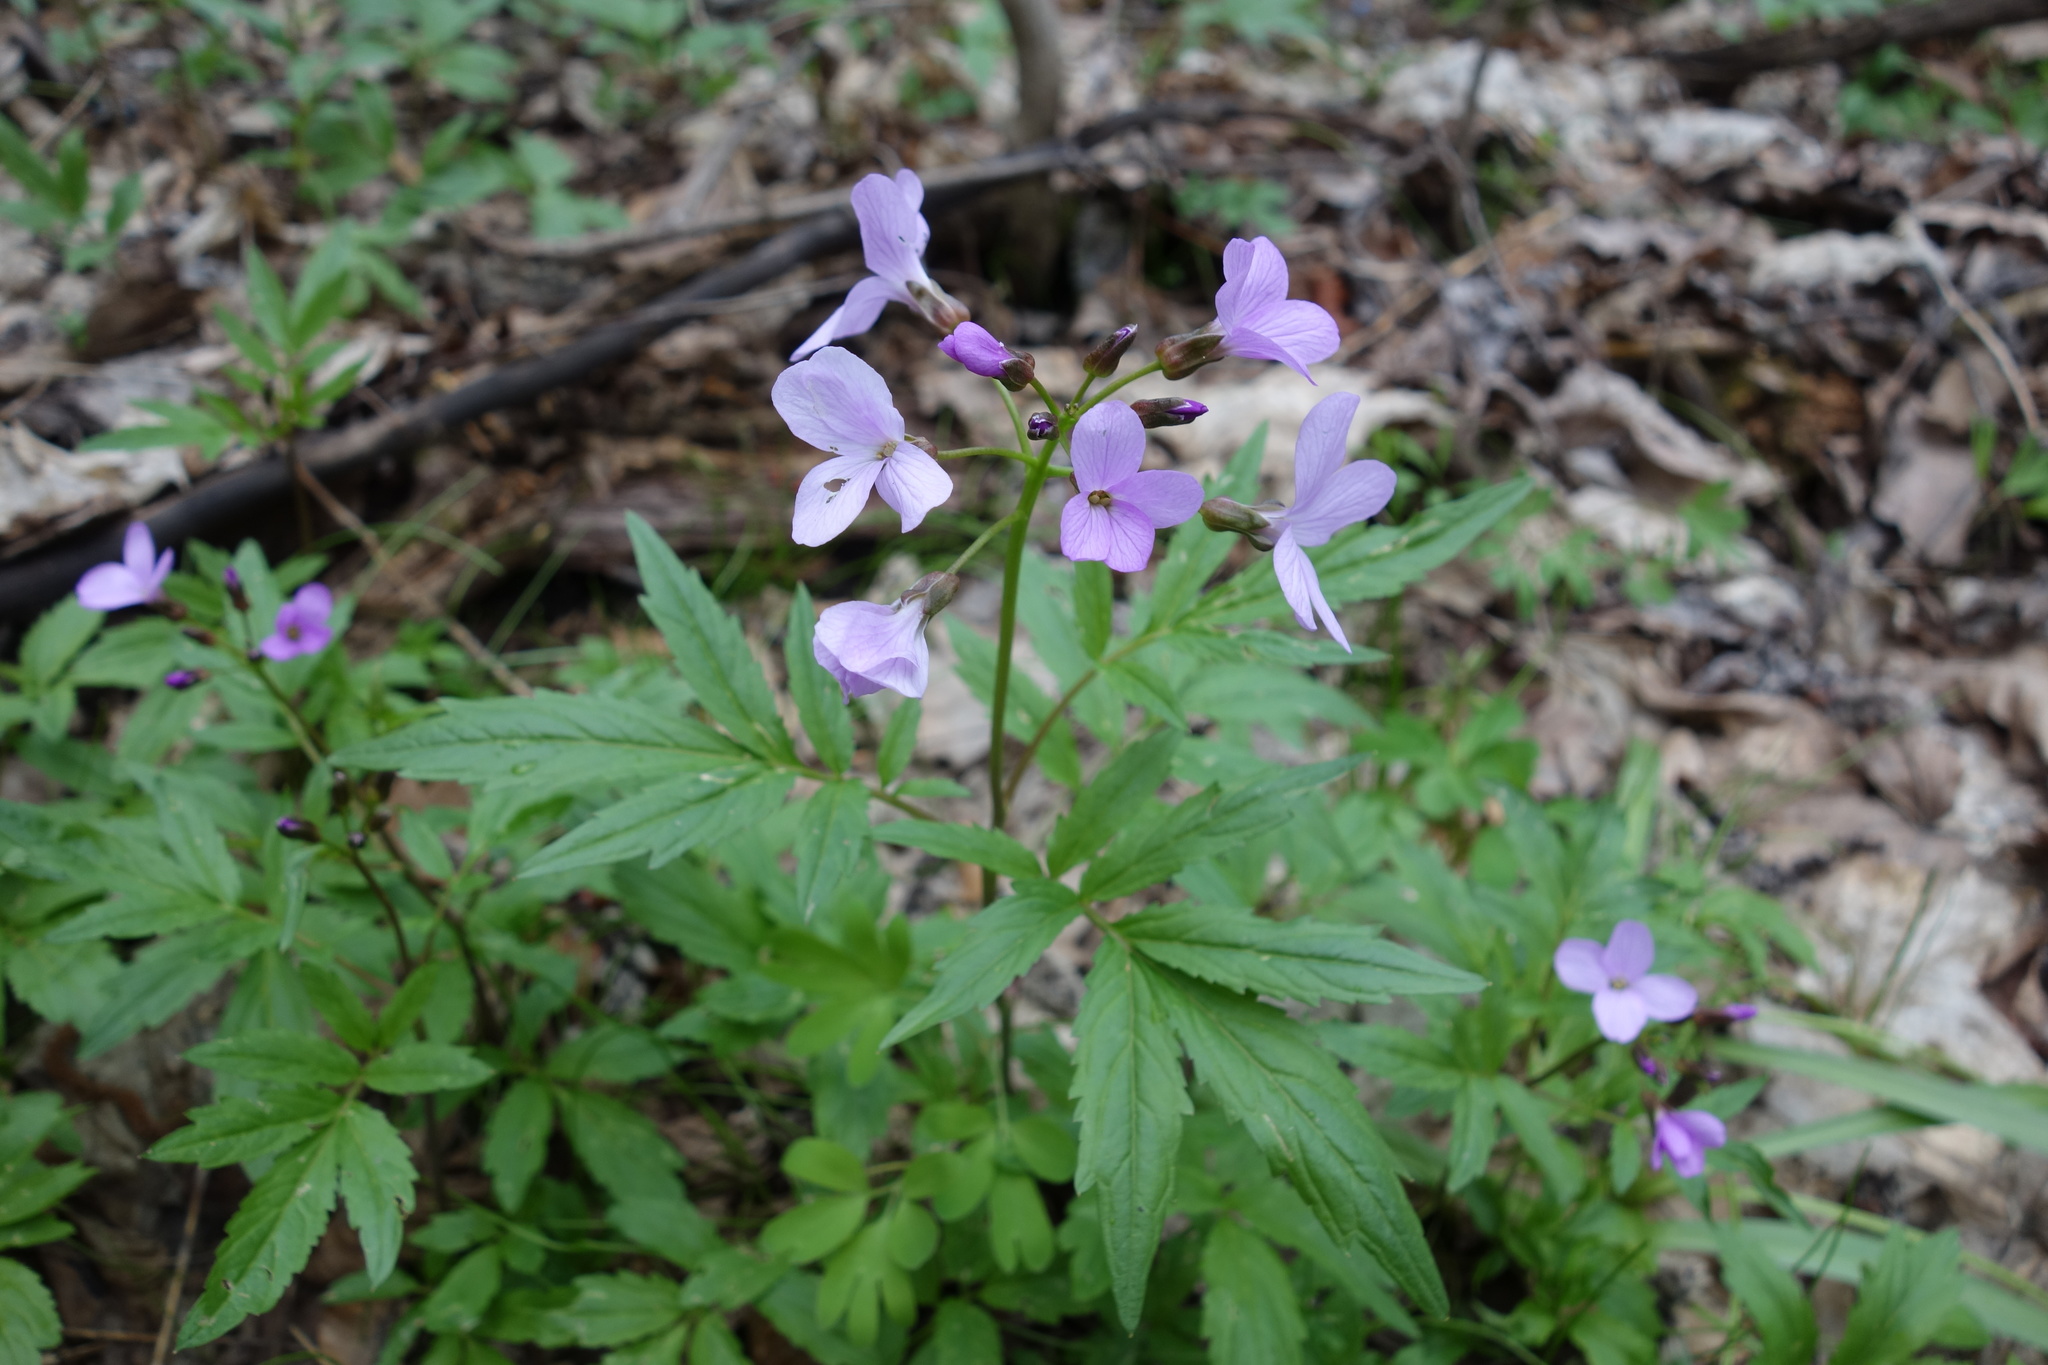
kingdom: Plantae
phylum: Tracheophyta
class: Magnoliopsida
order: Brassicales
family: Brassicaceae
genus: Cardamine
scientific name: Cardamine quinquefolia
